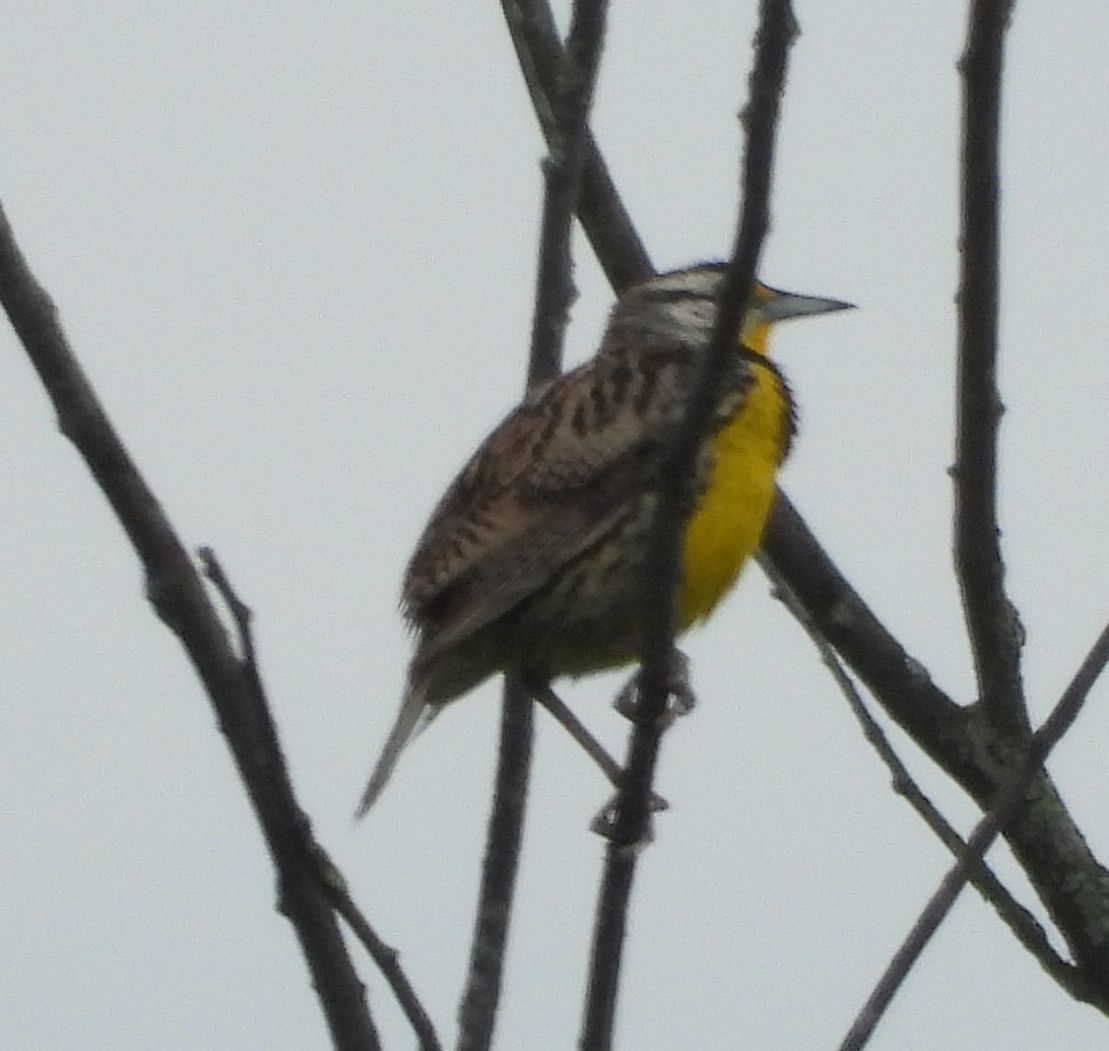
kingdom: Animalia
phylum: Chordata
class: Aves
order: Passeriformes
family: Icteridae
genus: Sturnella
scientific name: Sturnella magna
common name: Eastern meadowlark
